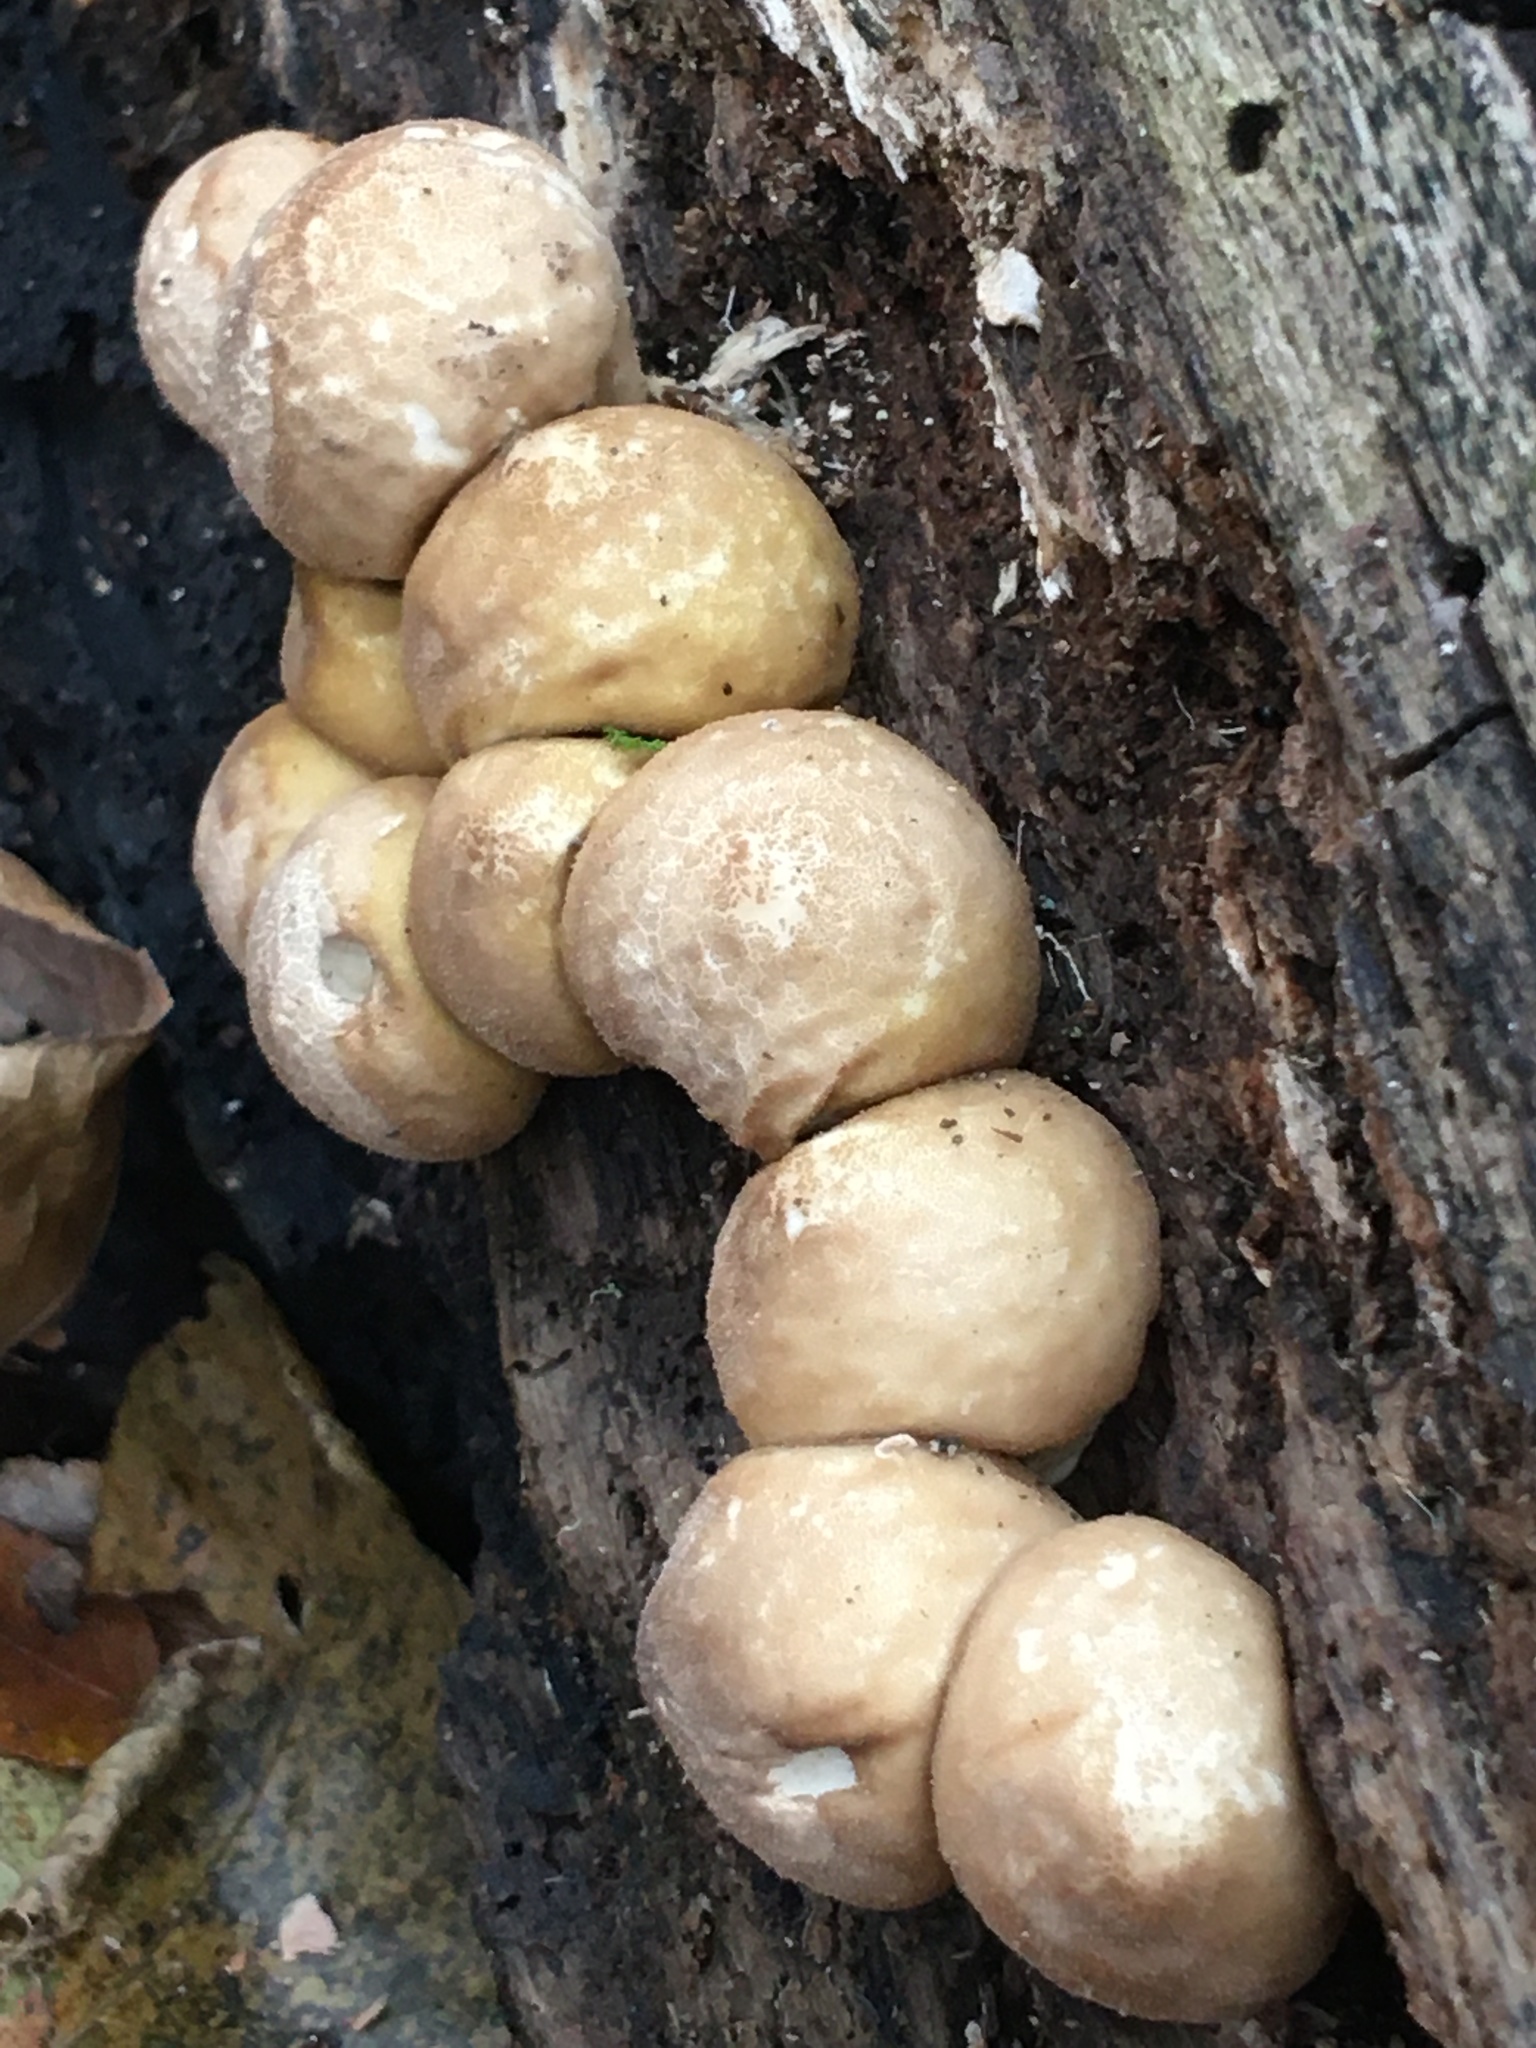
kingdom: Fungi
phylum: Basidiomycota
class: Agaricomycetes
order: Agaricales
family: Lycoperdaceae
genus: Apioperdon
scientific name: Apioperdon pyriforme
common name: Pear-shaped puffball
